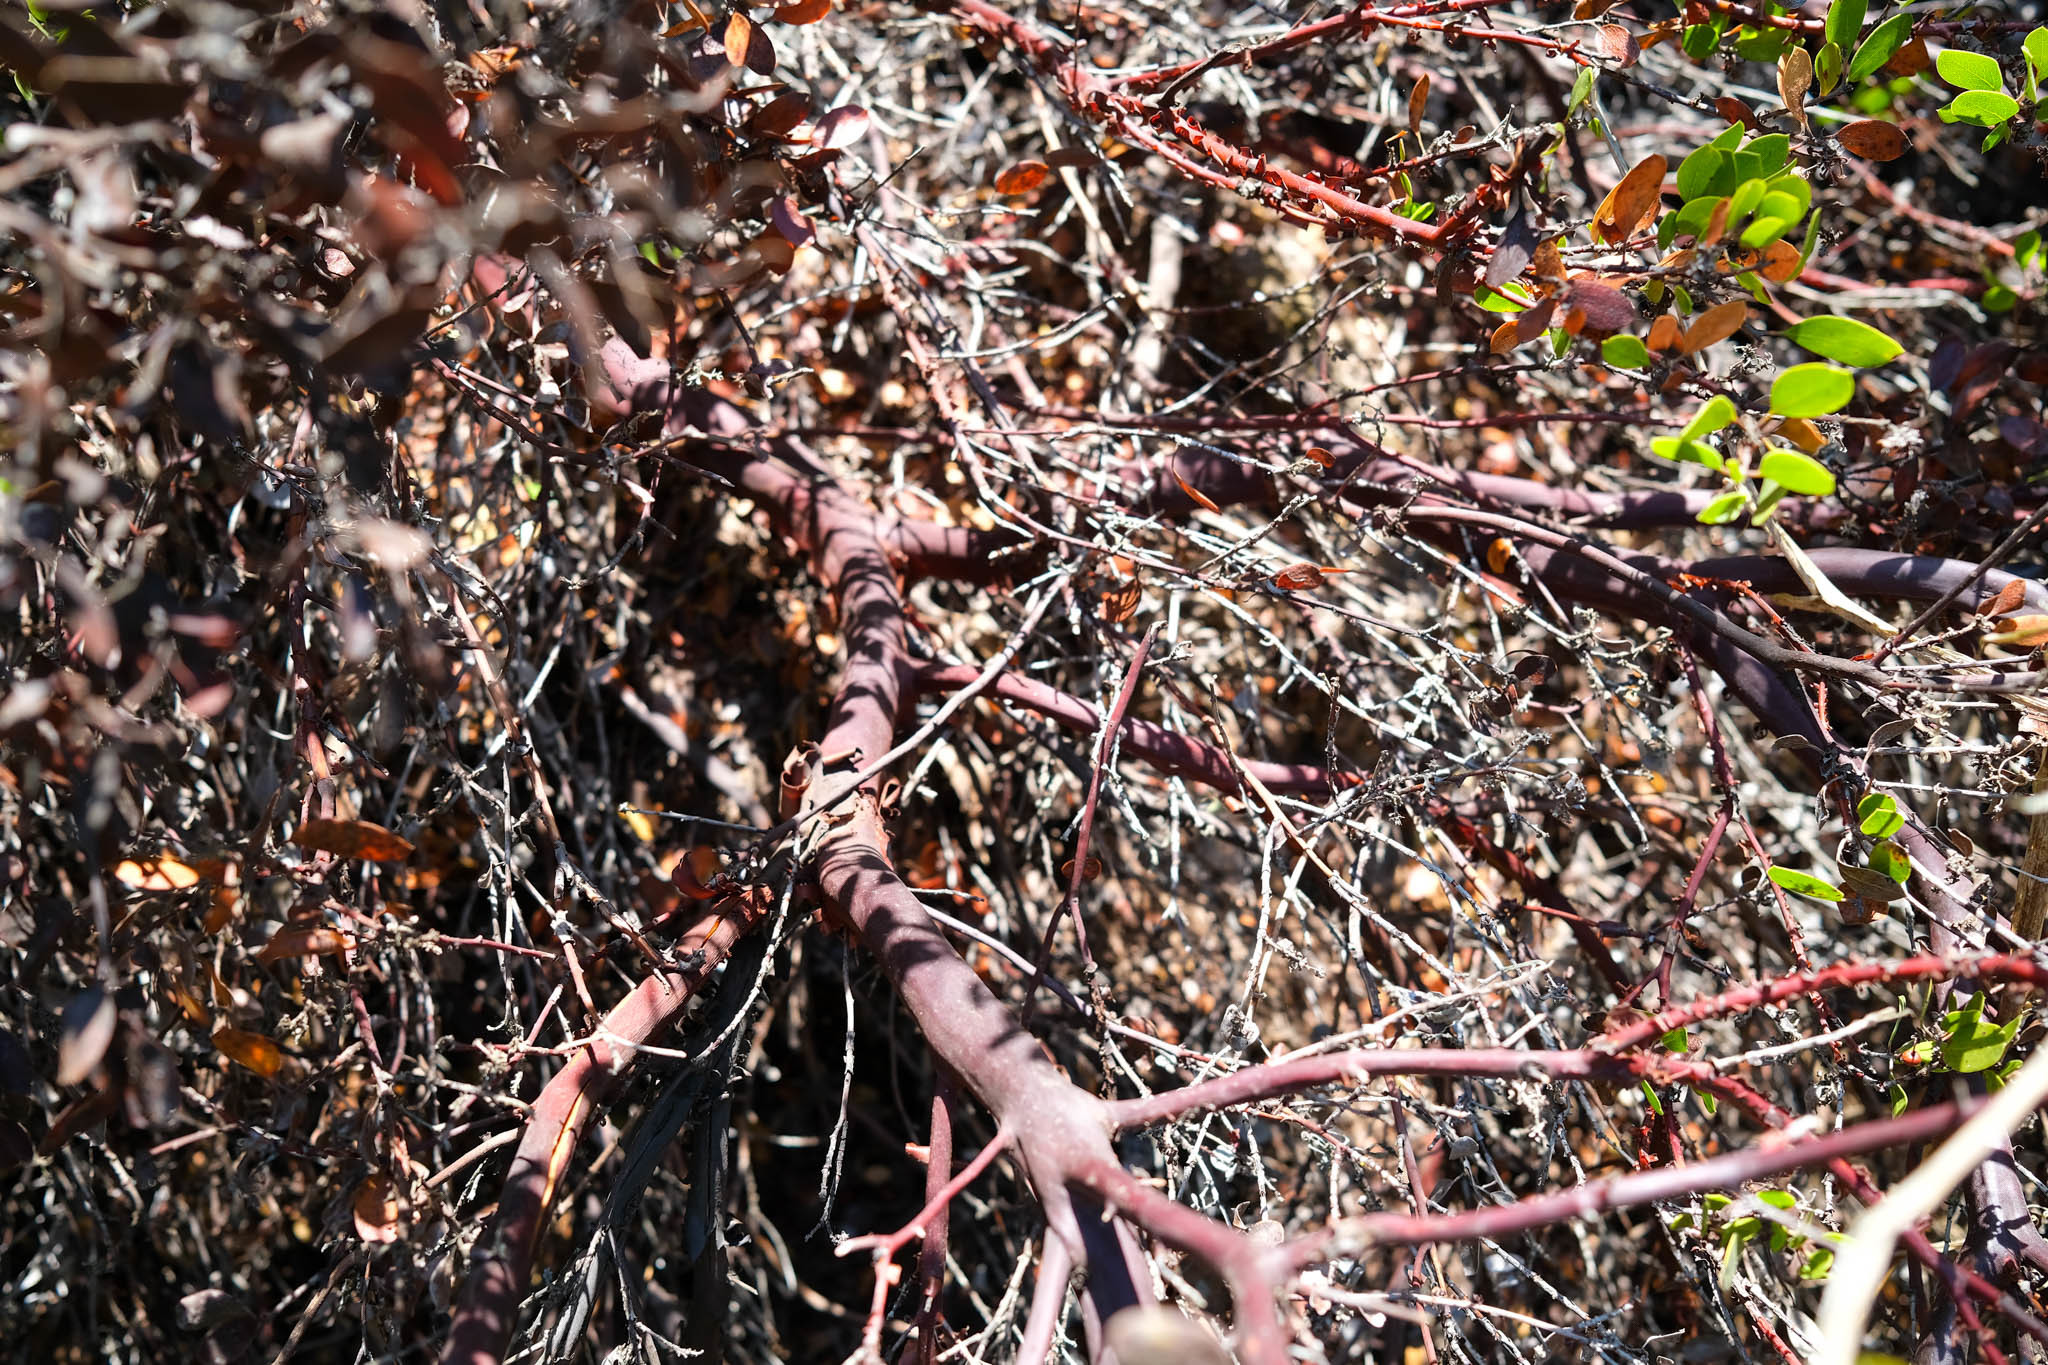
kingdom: Plantae
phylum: Tracheophyta
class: Magnoliopsida
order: Ericales
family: Ericaceae
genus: Arctostaphylos
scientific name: Arctostaphylos hookeri
